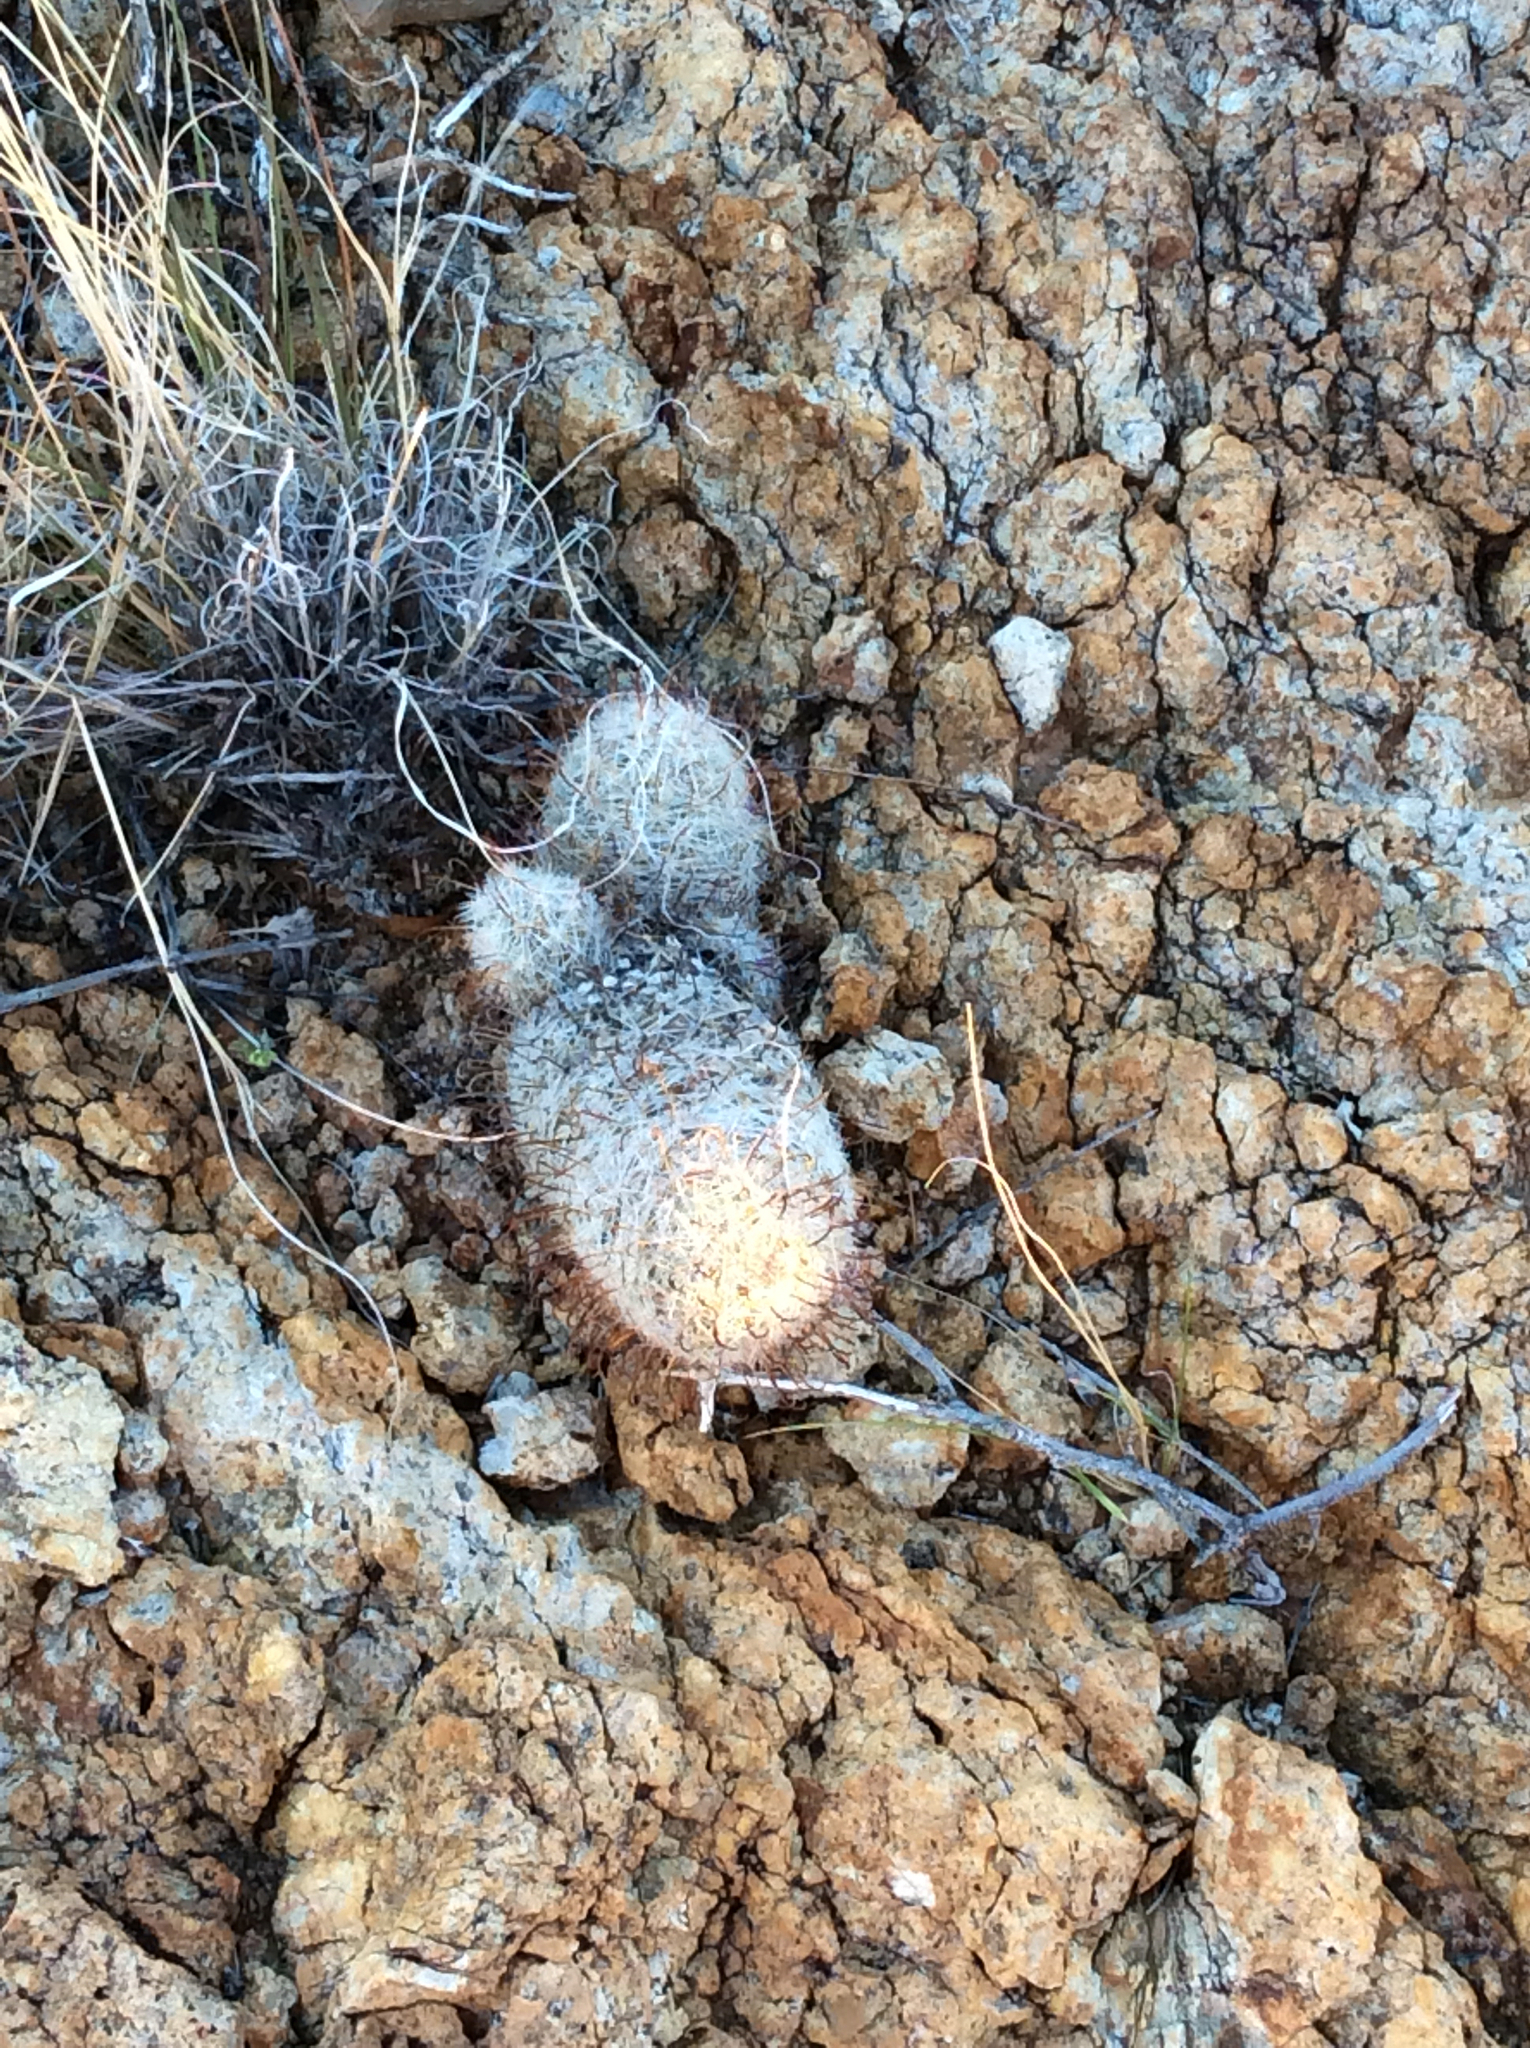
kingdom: Plantae
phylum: Tracheophyta
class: Magnoliopsida
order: Caryophyllales
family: Cactaceae
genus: Cochemiea
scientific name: Cochemiea grahamii
